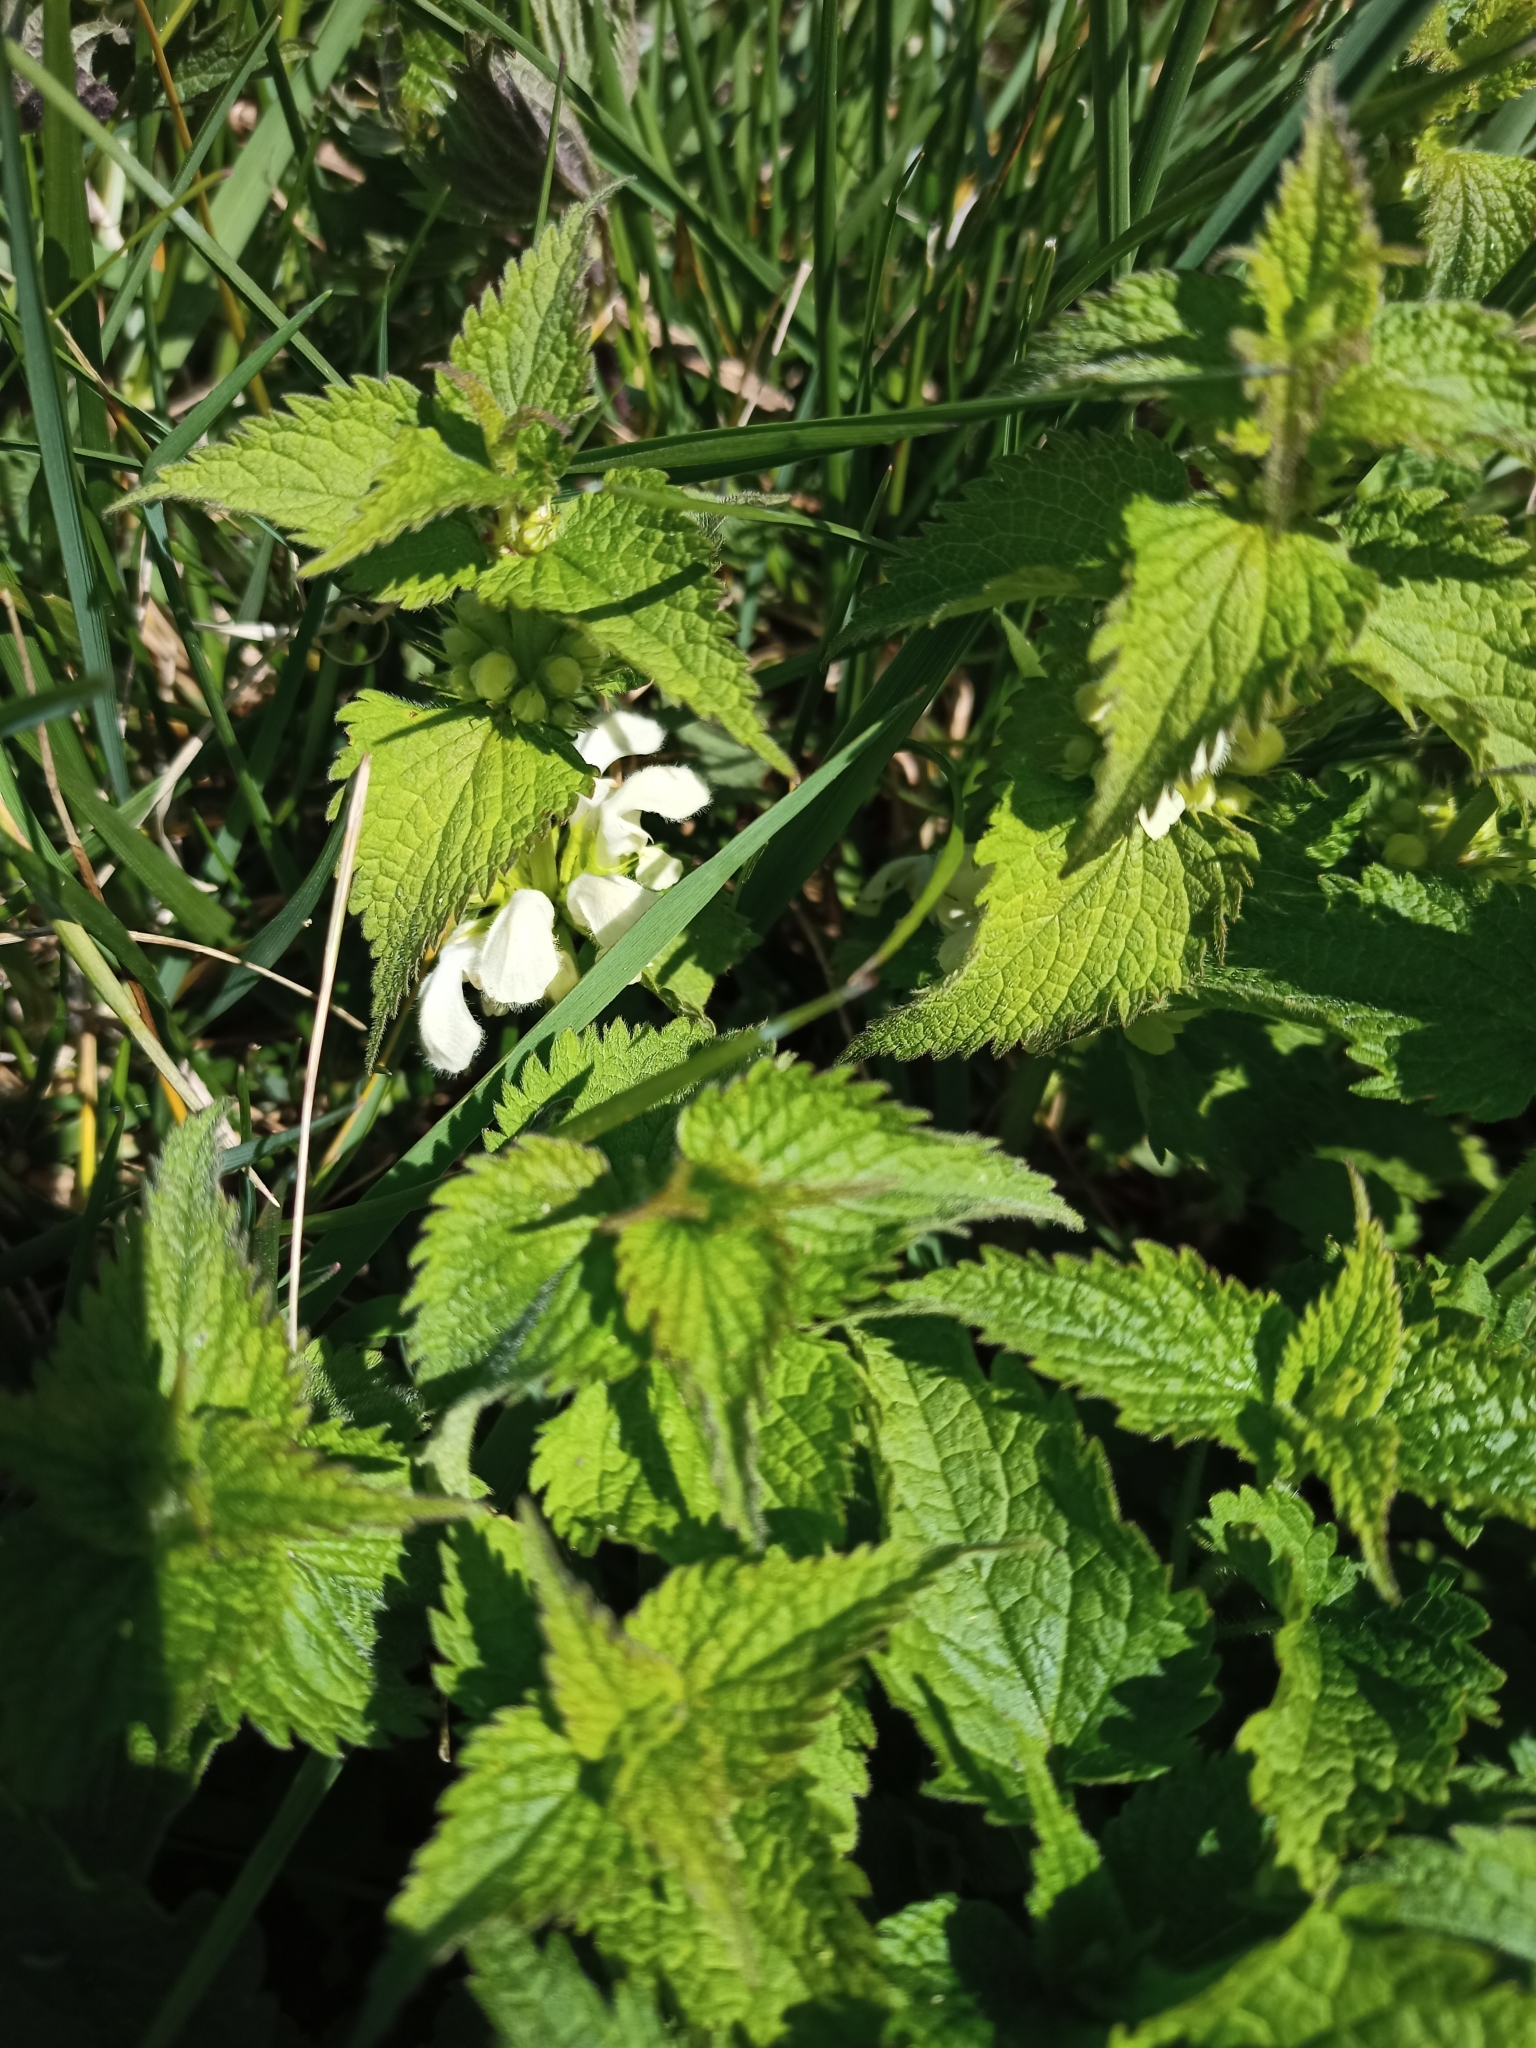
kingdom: Plantae
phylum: Tracheophyta
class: Magnoliopsida
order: Lamiales
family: Lamiaceae
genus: Lamium
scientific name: Lamium album
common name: White dead-nettle
